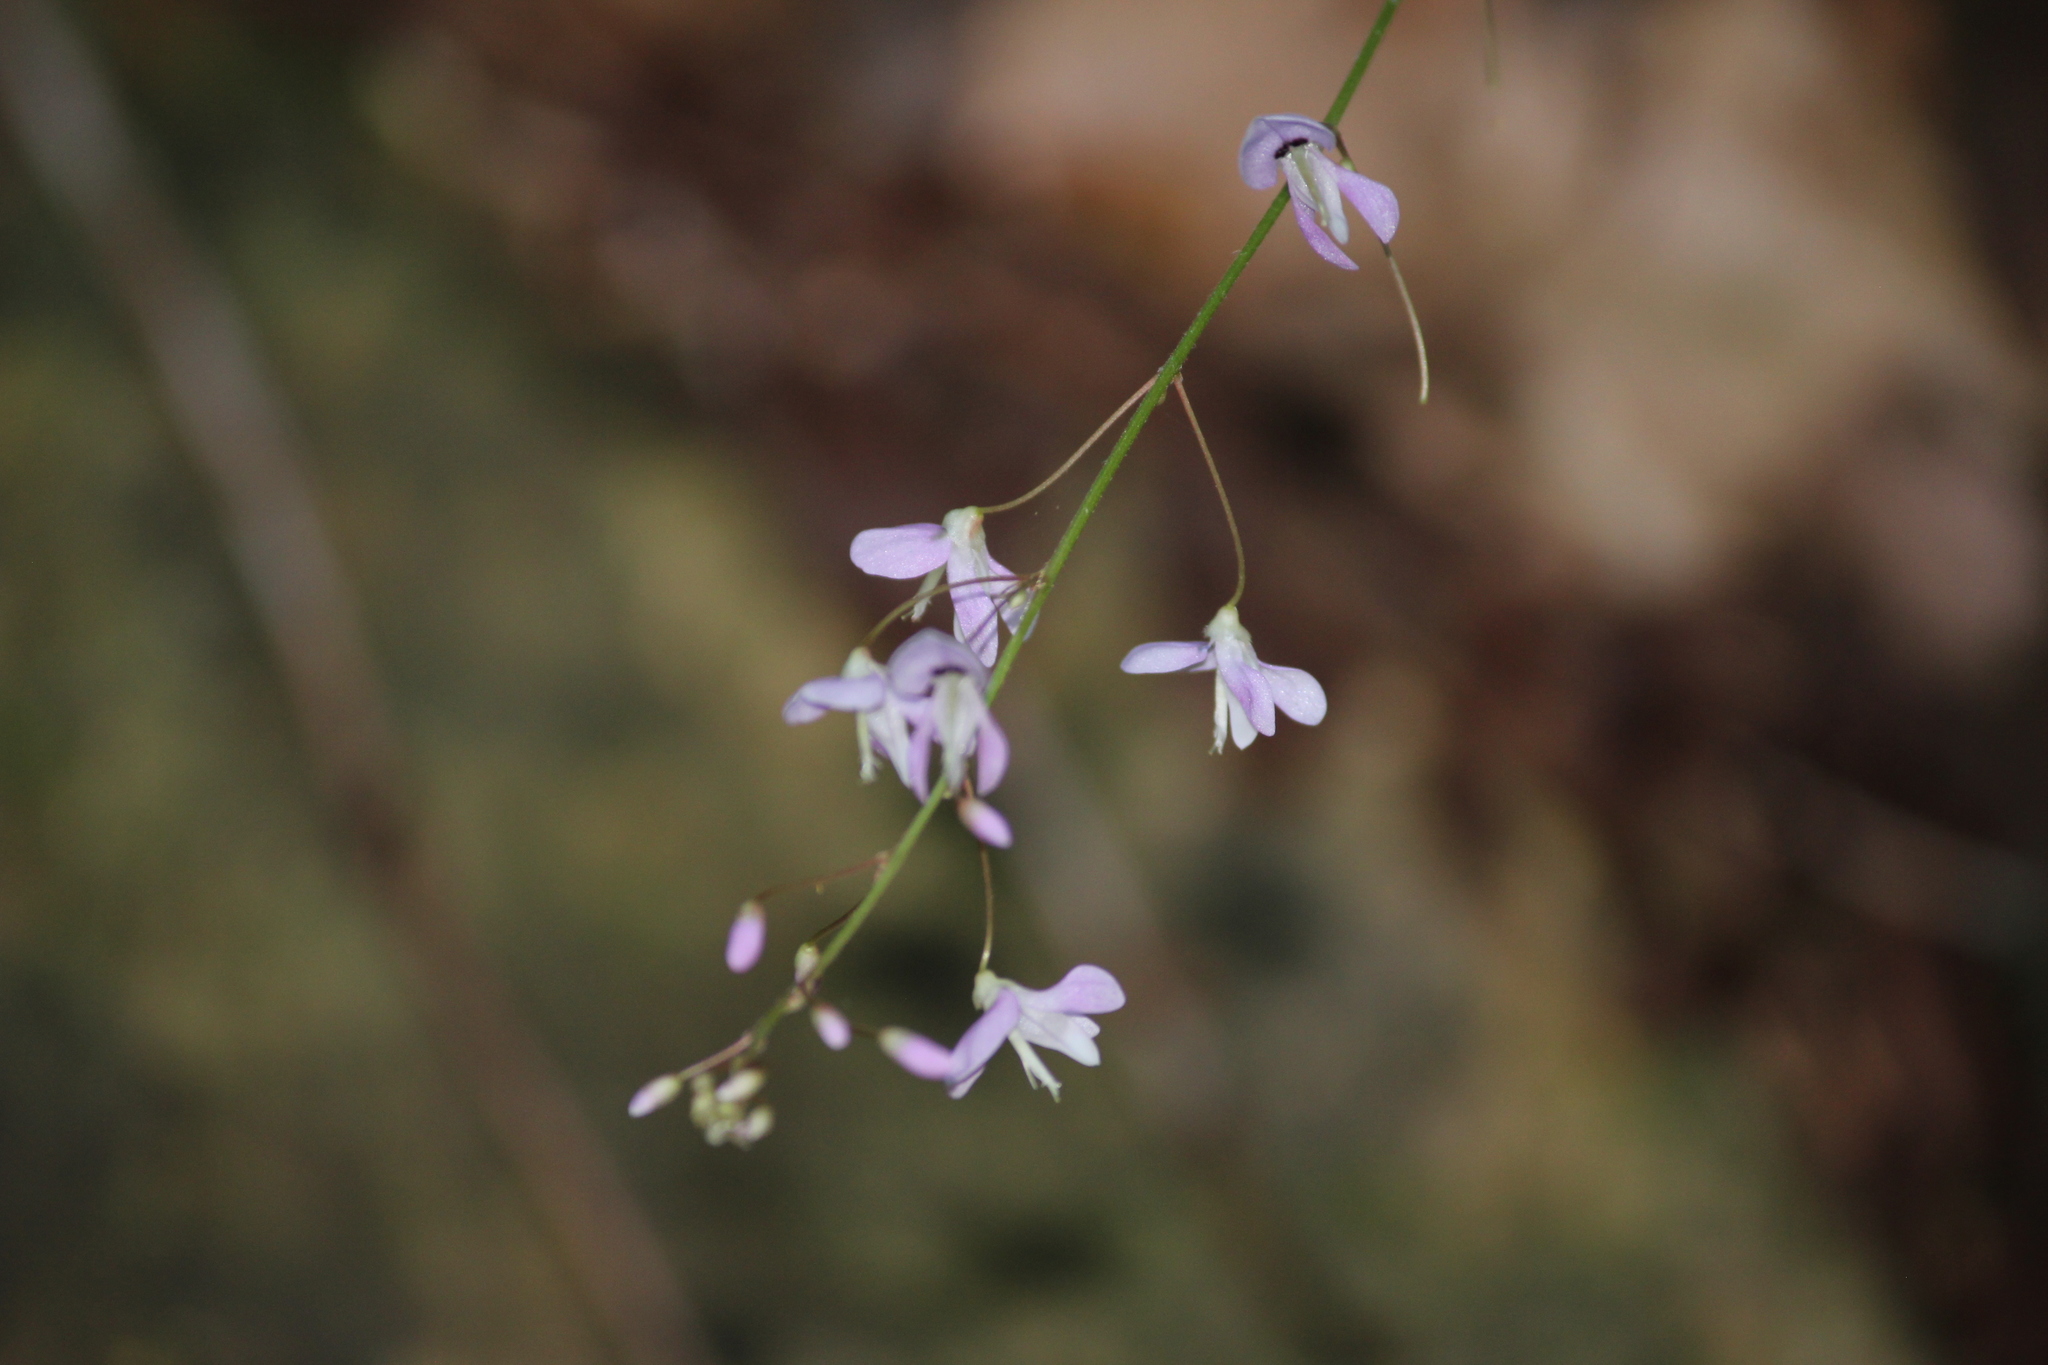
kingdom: Plantae
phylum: Tracheophyta
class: Magnoliopsida
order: Fabales
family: Fabaceae
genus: Hylodesmum
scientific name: Hylodesmum nudiflorum
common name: Bare-stemmed tick-trefoil
